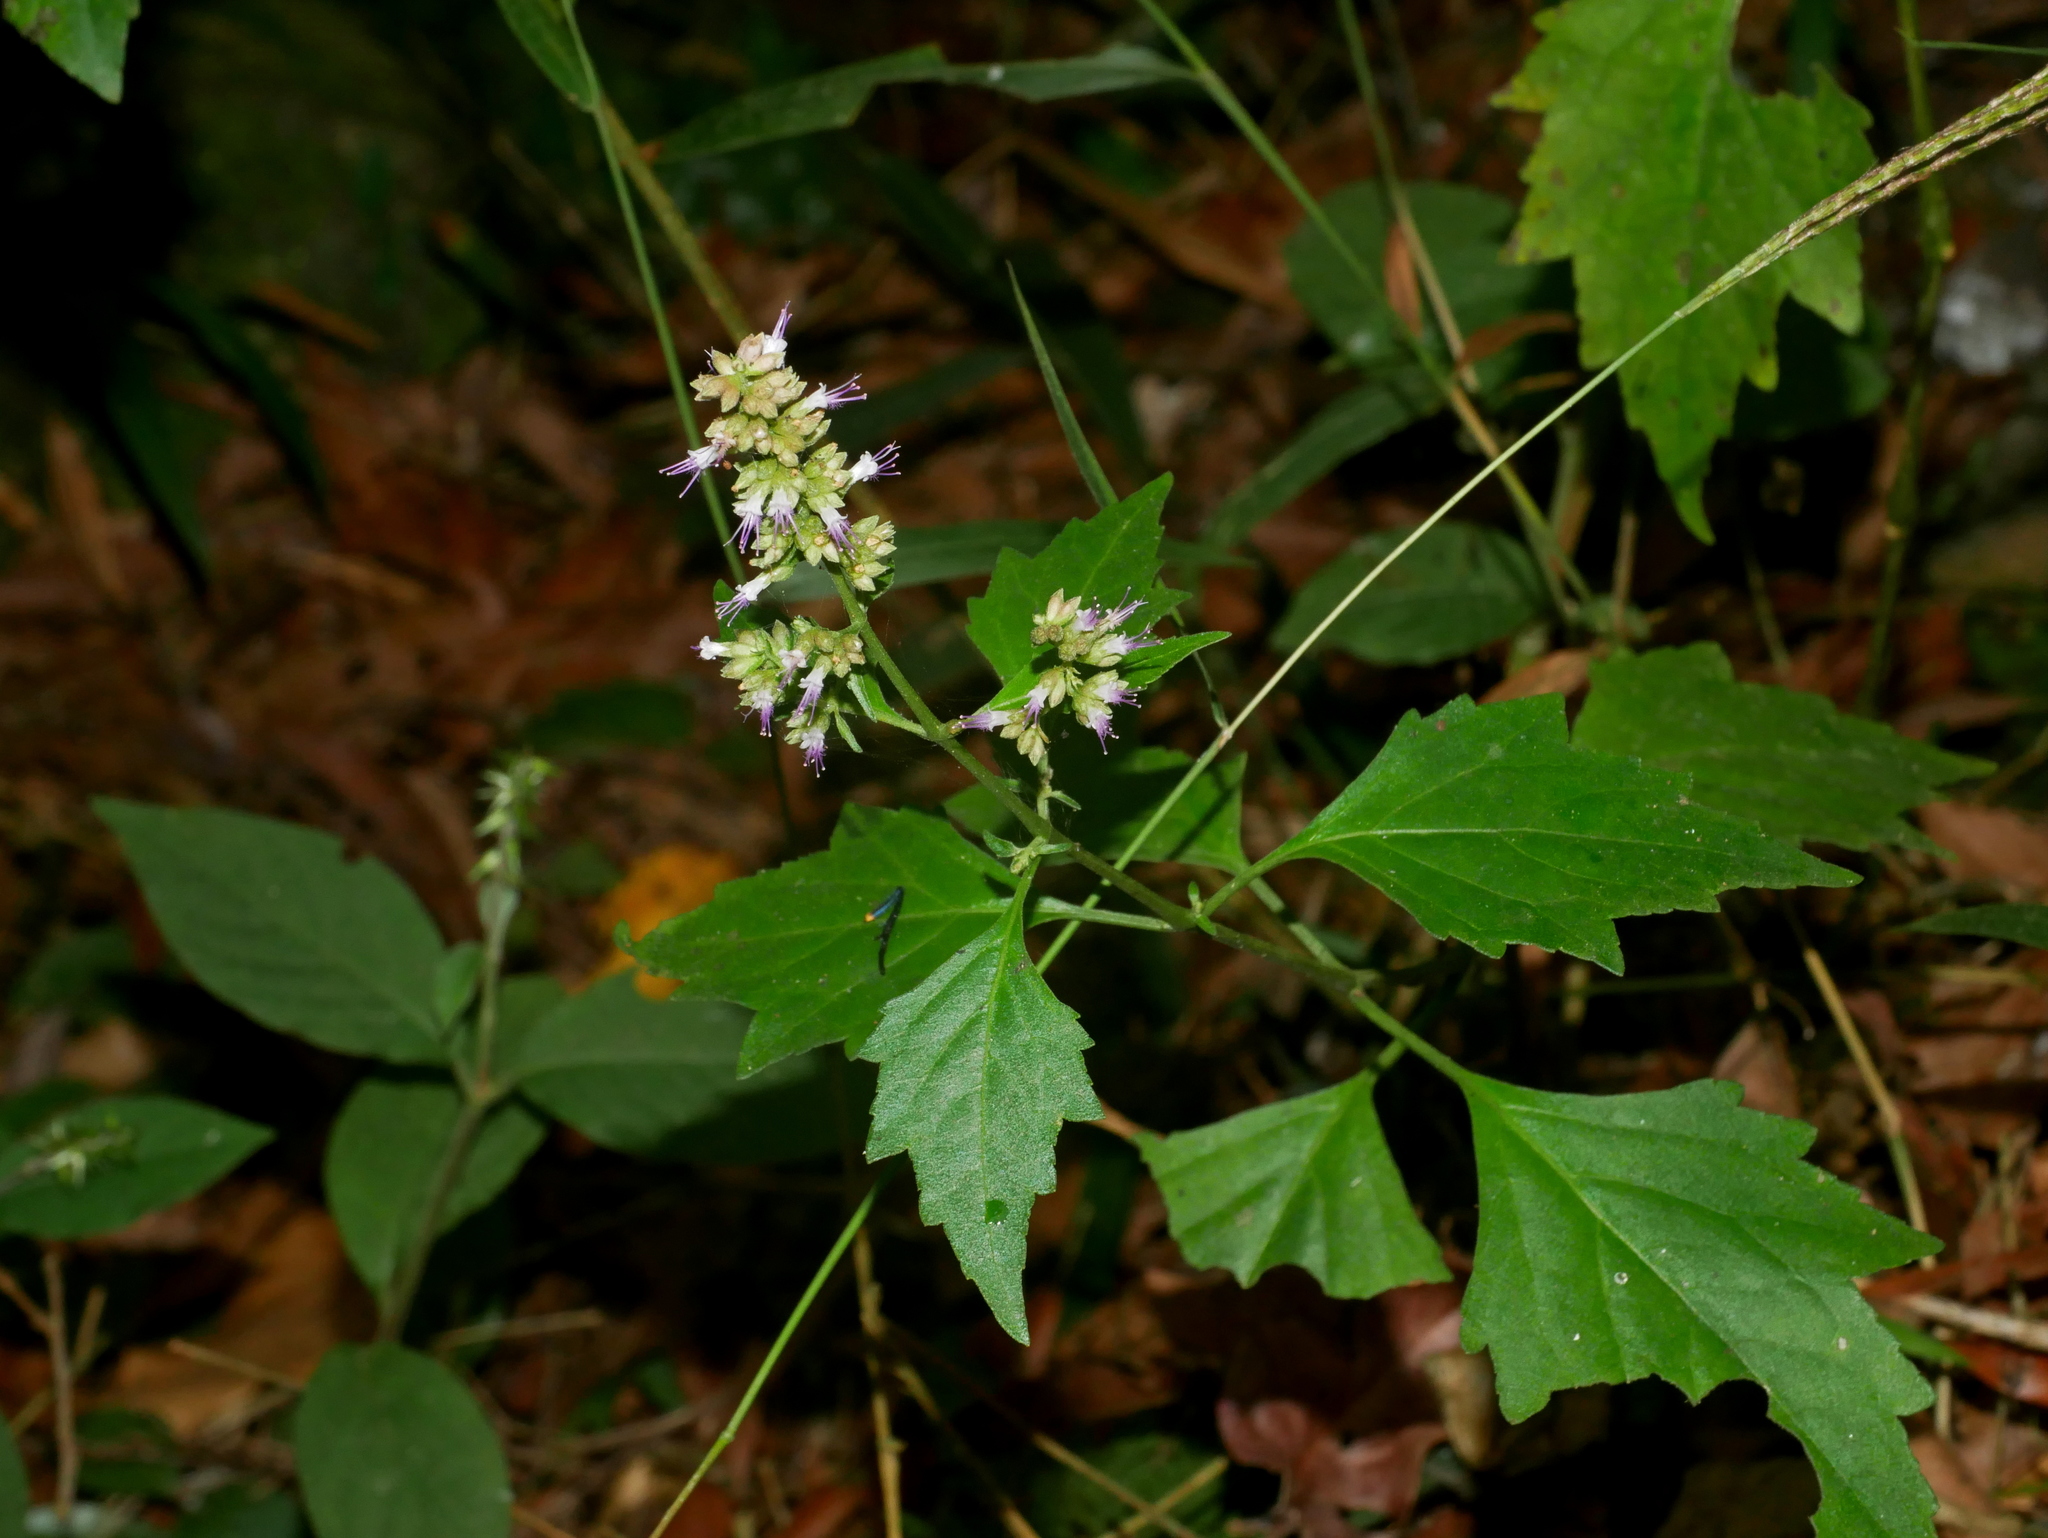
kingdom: Plantae
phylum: Tracheophyta
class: Magnoliopsida
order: Lamiales
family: Lamiaceae
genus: Pogostemon
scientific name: Pogostemon formosanus
